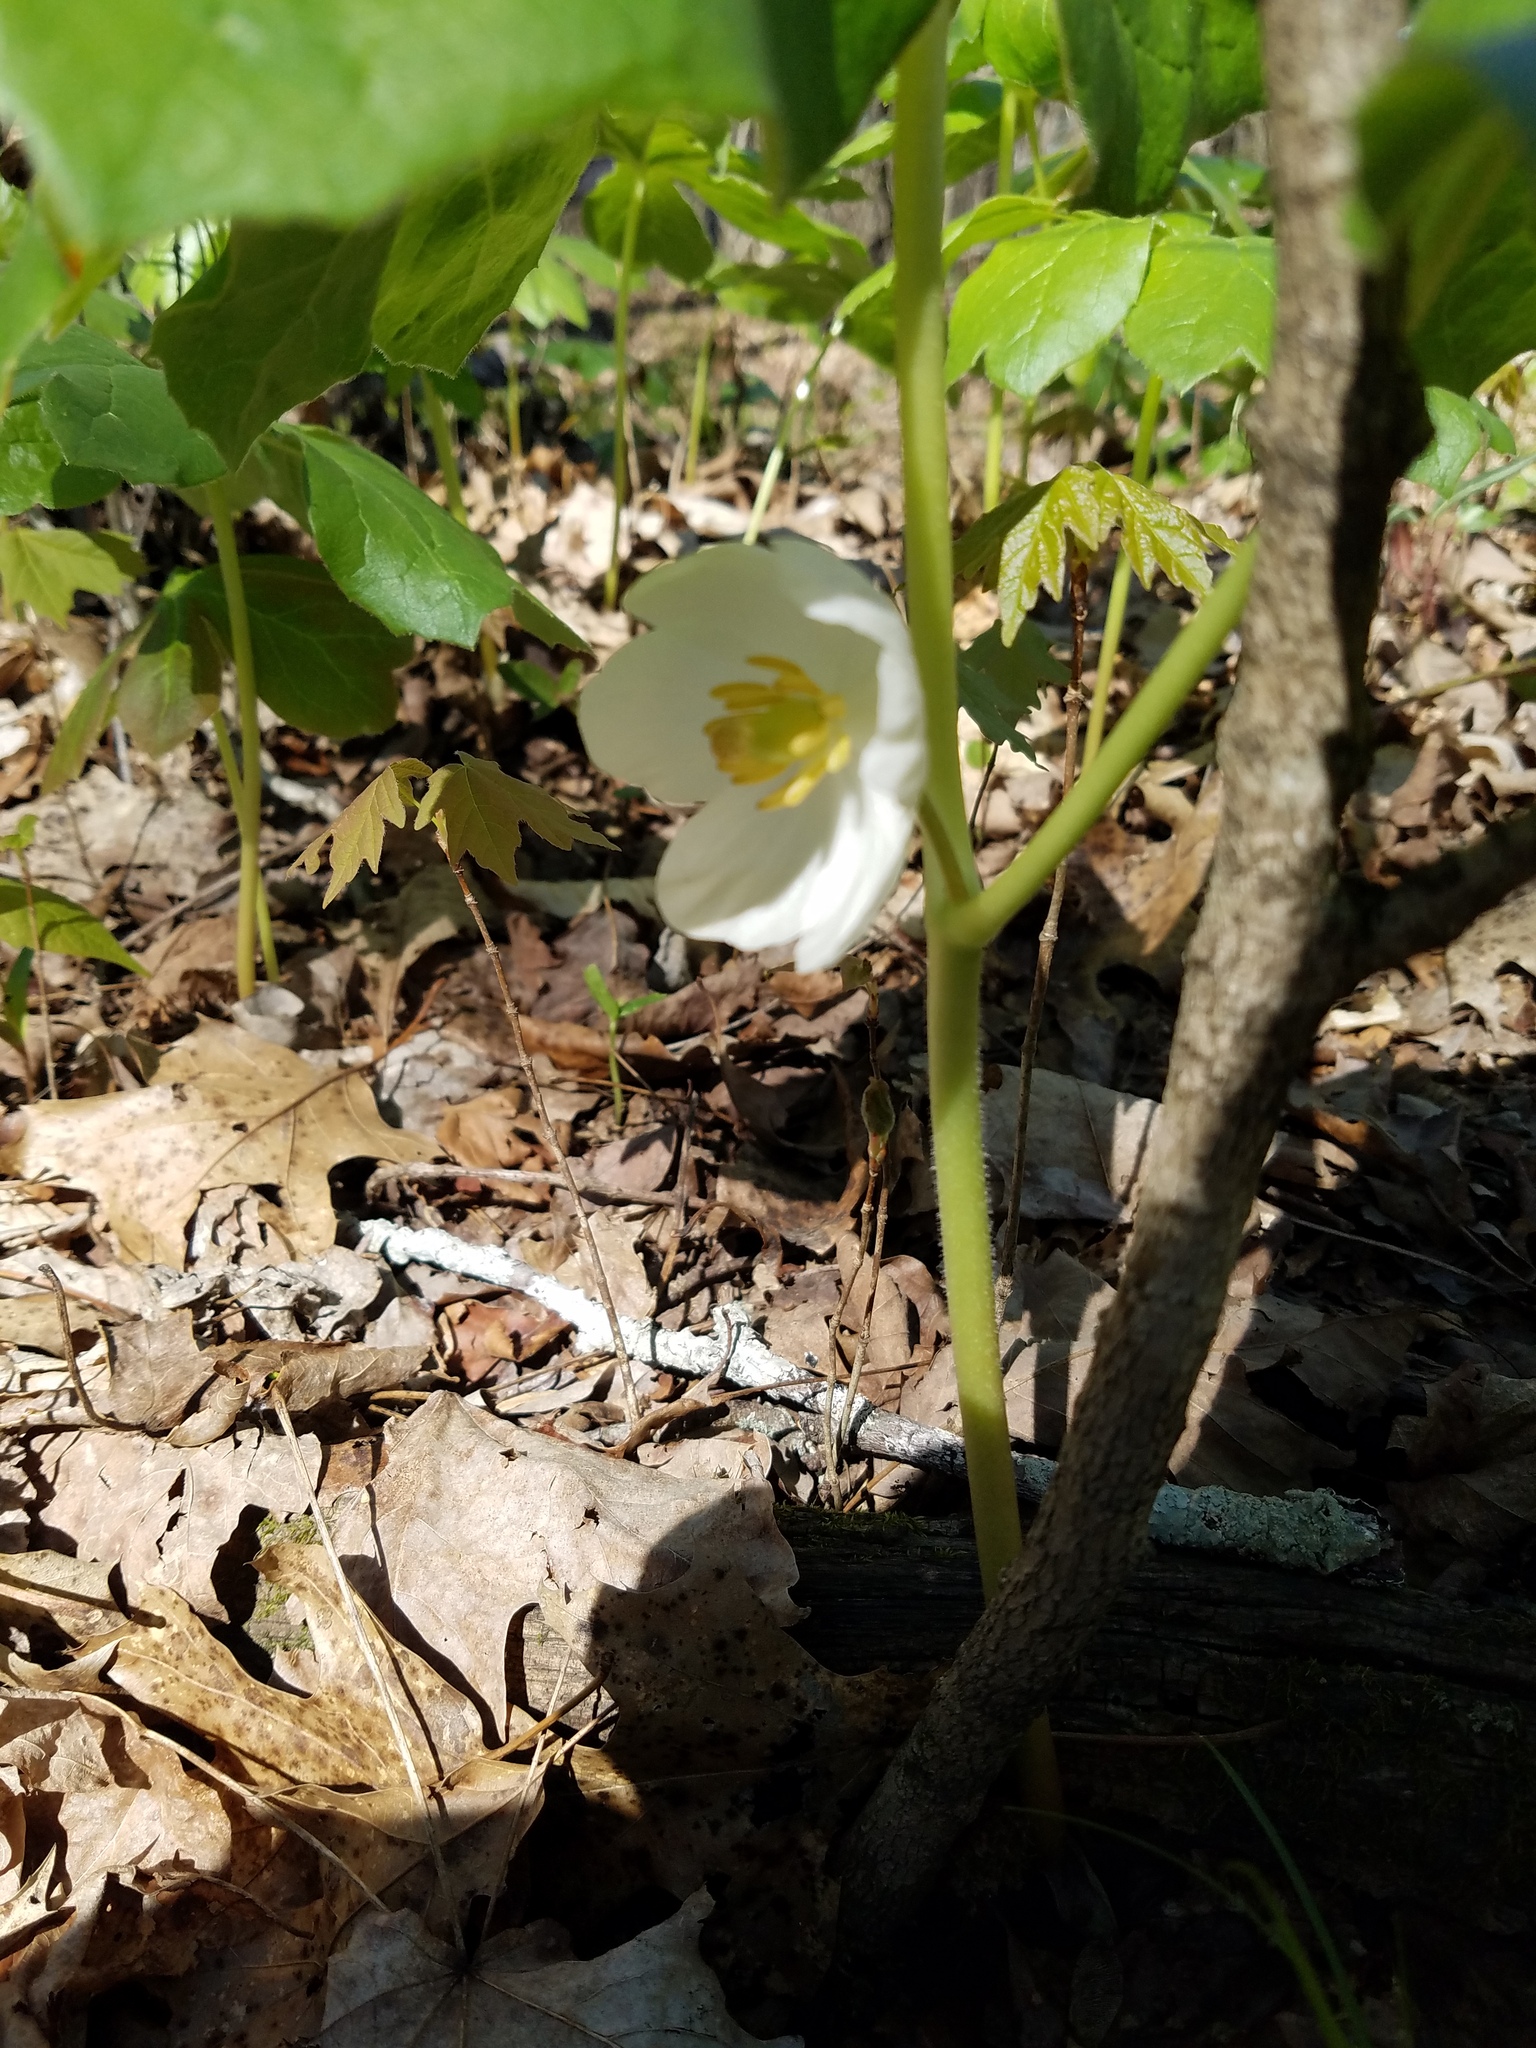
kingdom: Plantae
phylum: Tracheophyta
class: Magnoliopsida
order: Ranunculales
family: Berberidaceae
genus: Podophyllum
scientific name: Podophyllum peltatum
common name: Wild mandrake
